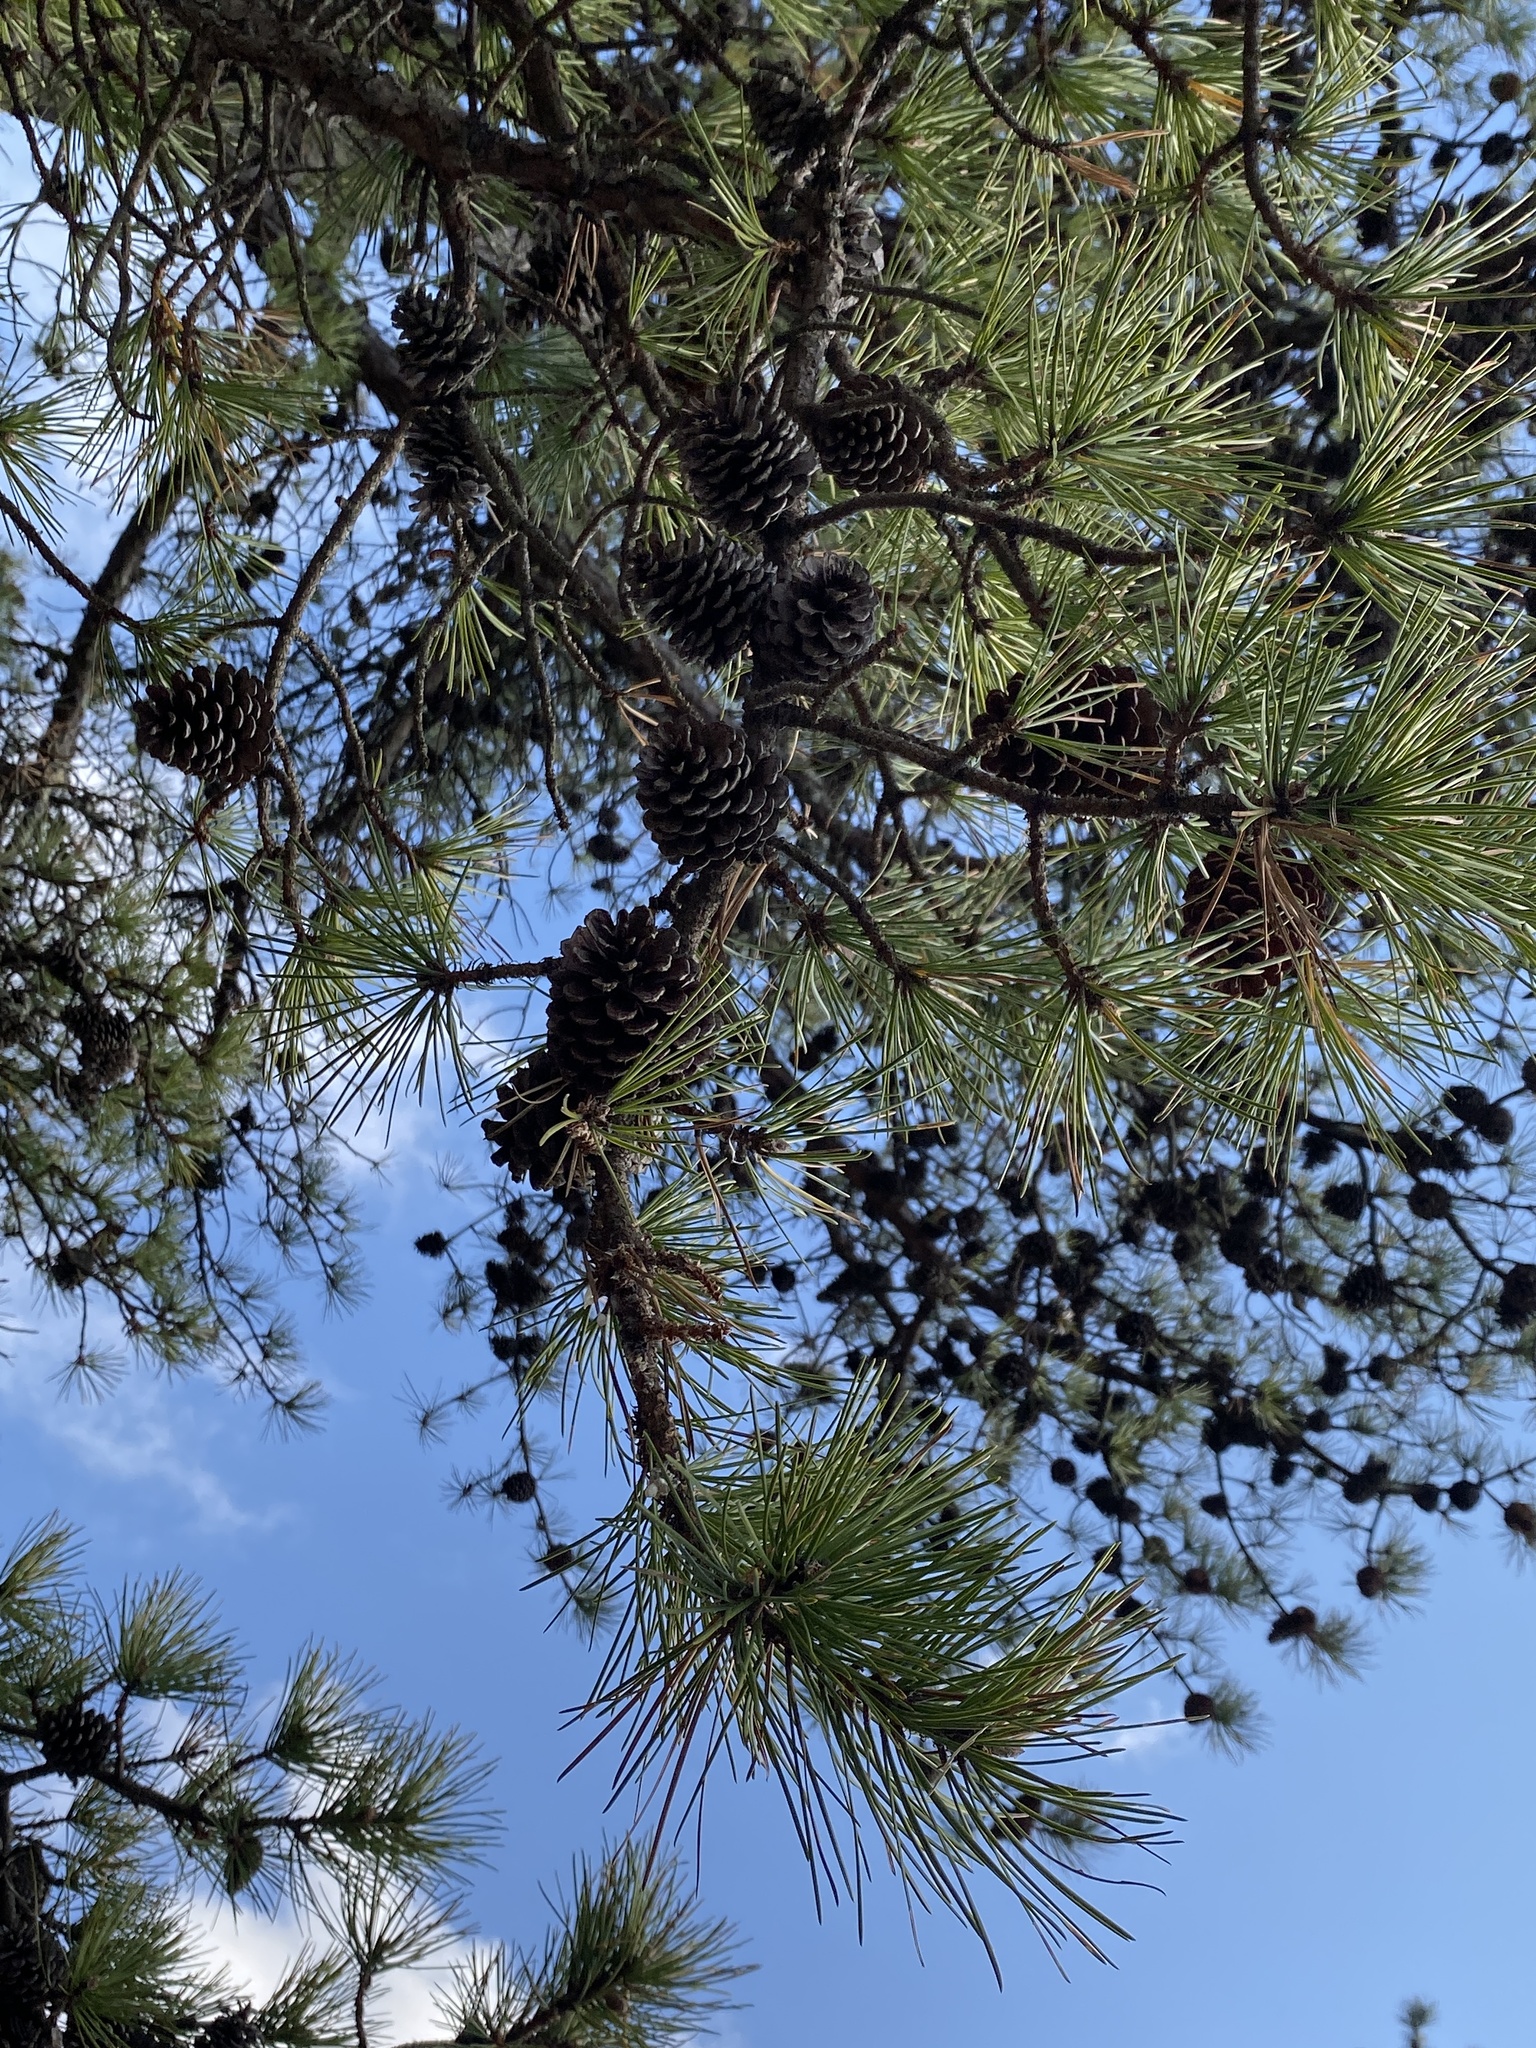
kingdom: Plantae
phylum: Tracheophyta
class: Pinopsida
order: Pinales
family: Pinaceae
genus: Pinus
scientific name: Pinus echinata
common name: Shortleaf pine
